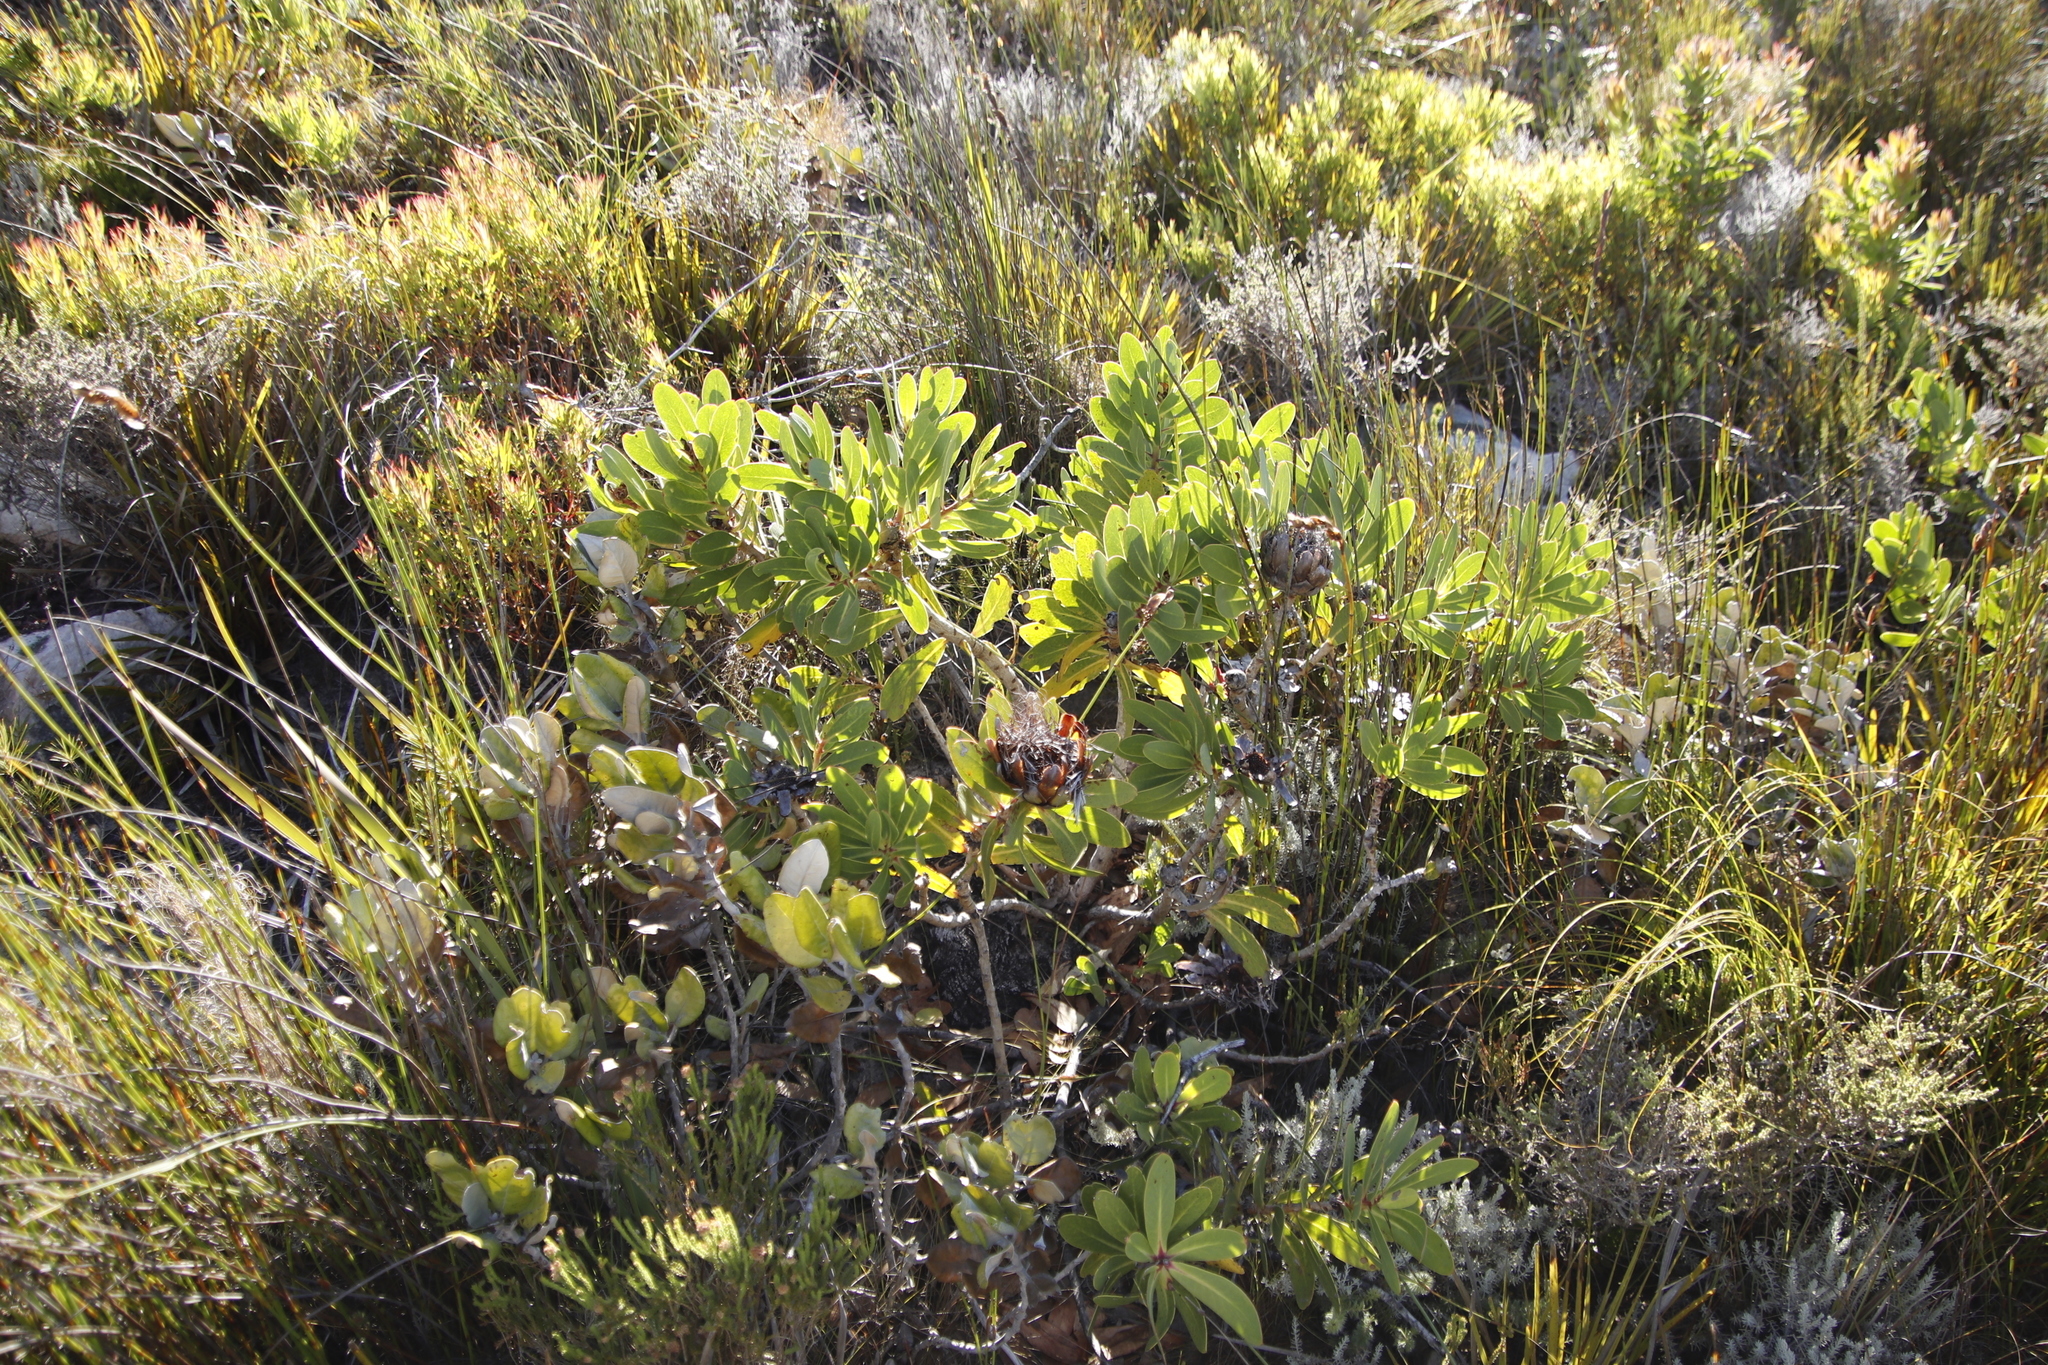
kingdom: Plantae
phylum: Tracheophyta
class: Magnoliopsida
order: Proteales
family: Proteaceae
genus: Protea
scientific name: Protea nitida
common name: Tree protea
